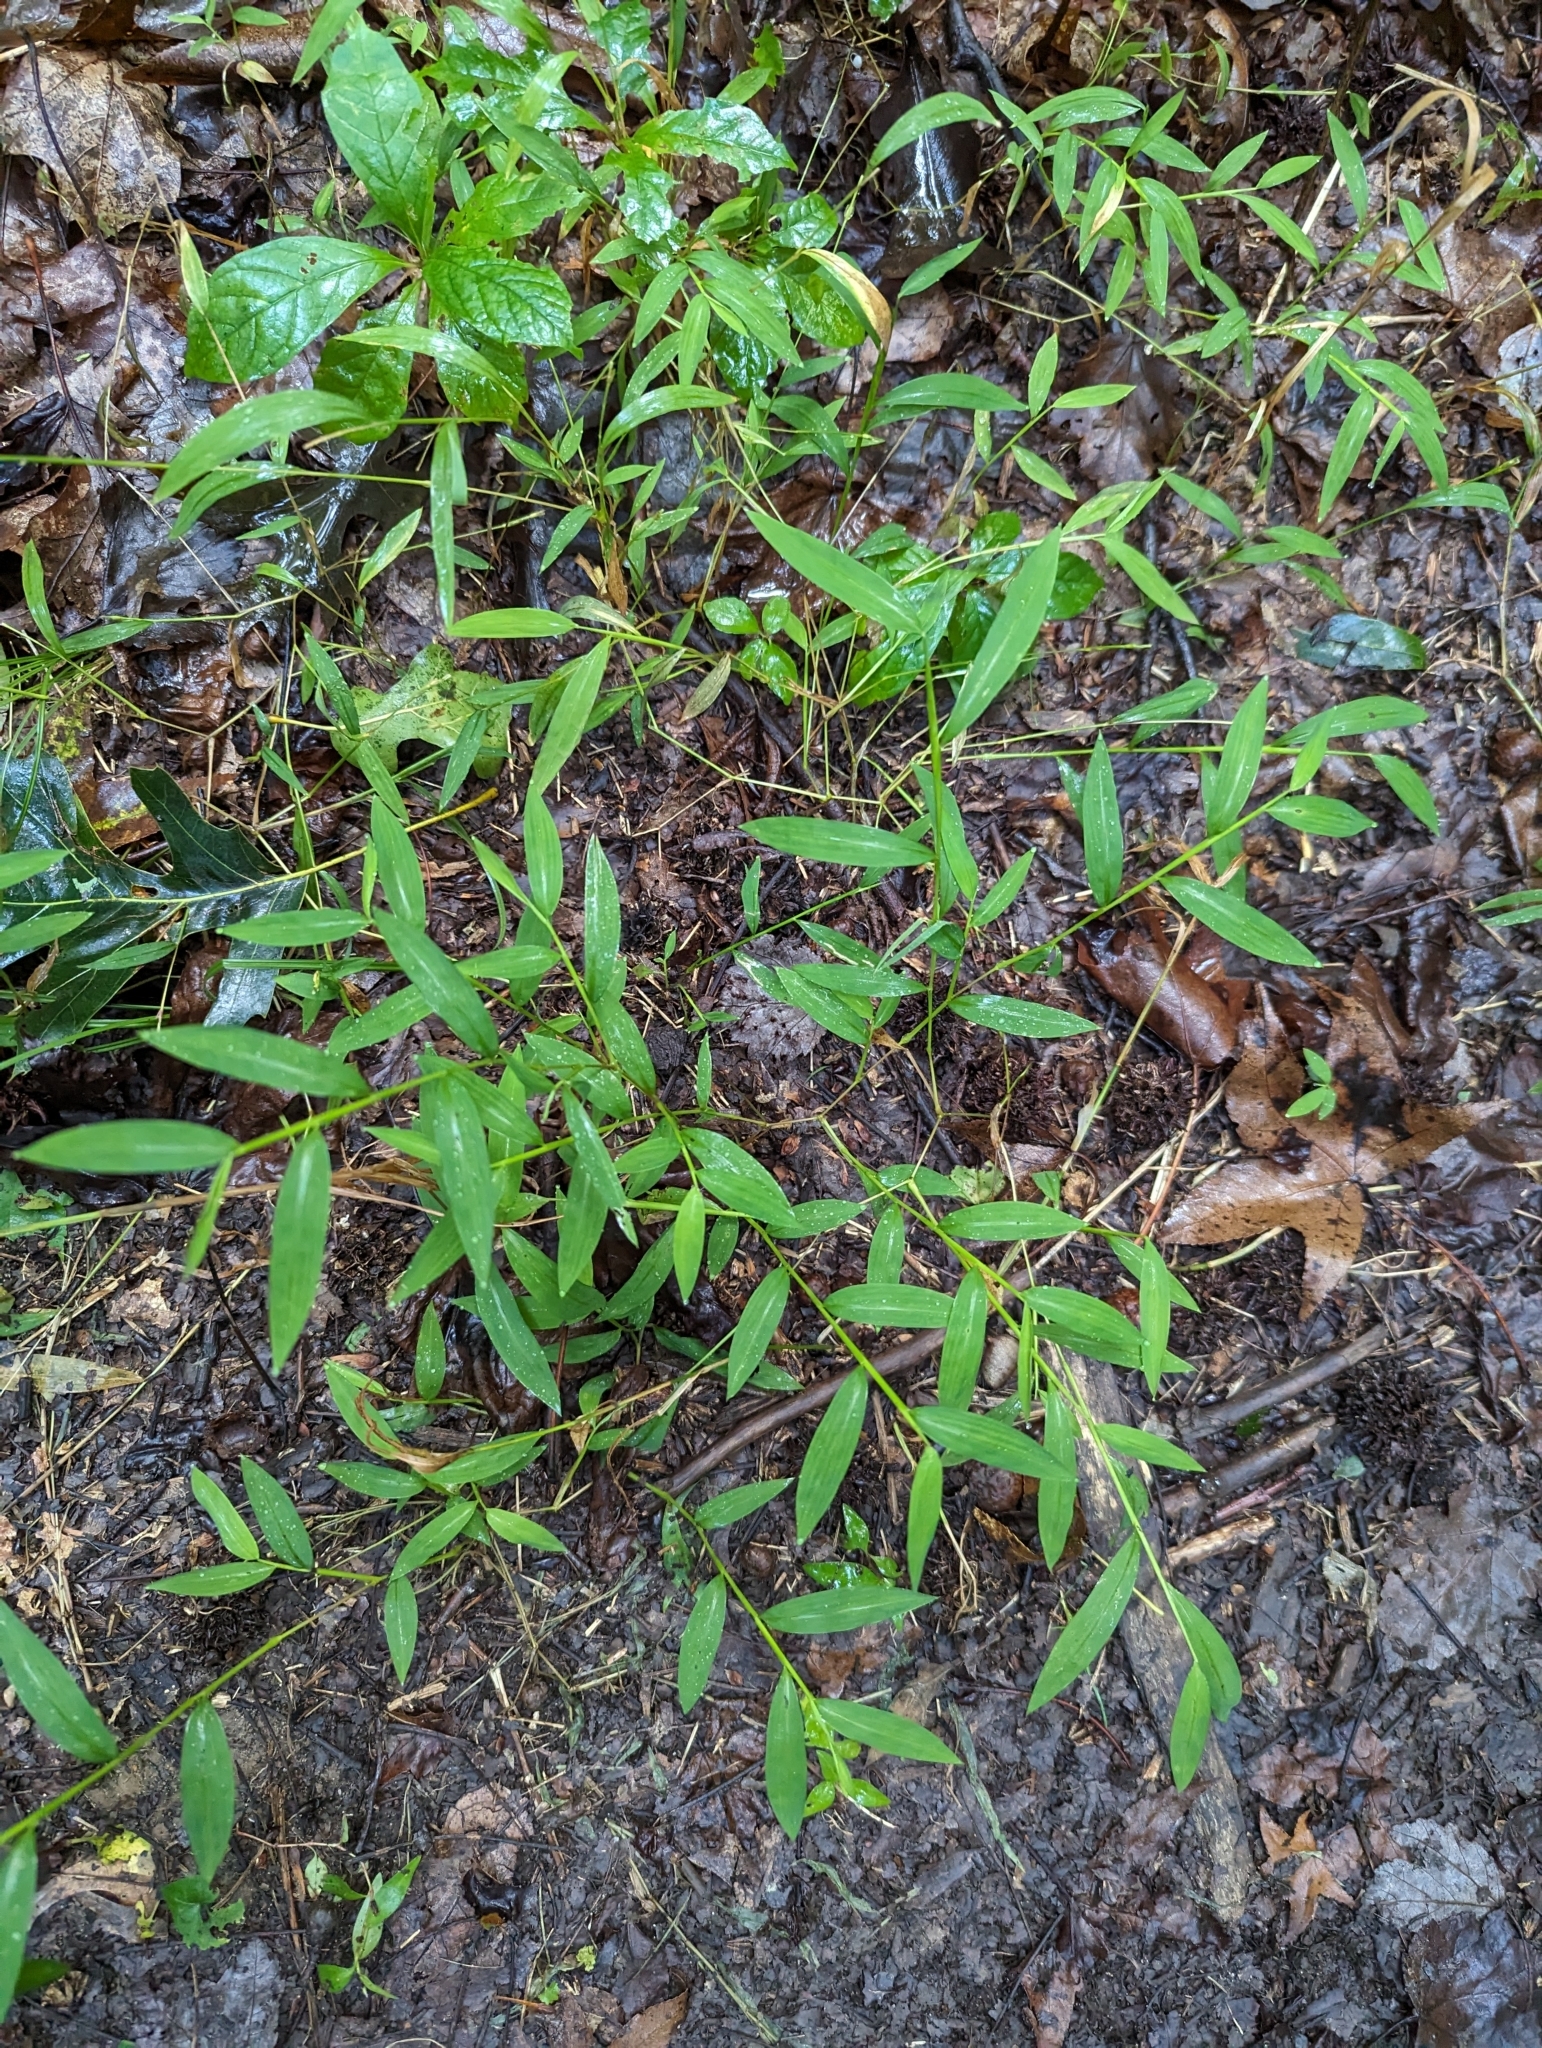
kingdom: Plantae
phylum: Tracheophyta
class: Liliopsida
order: Poales
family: Poaceae
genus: Microstegium
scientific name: Microstegium vimineum
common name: Japanese stiltgrass
